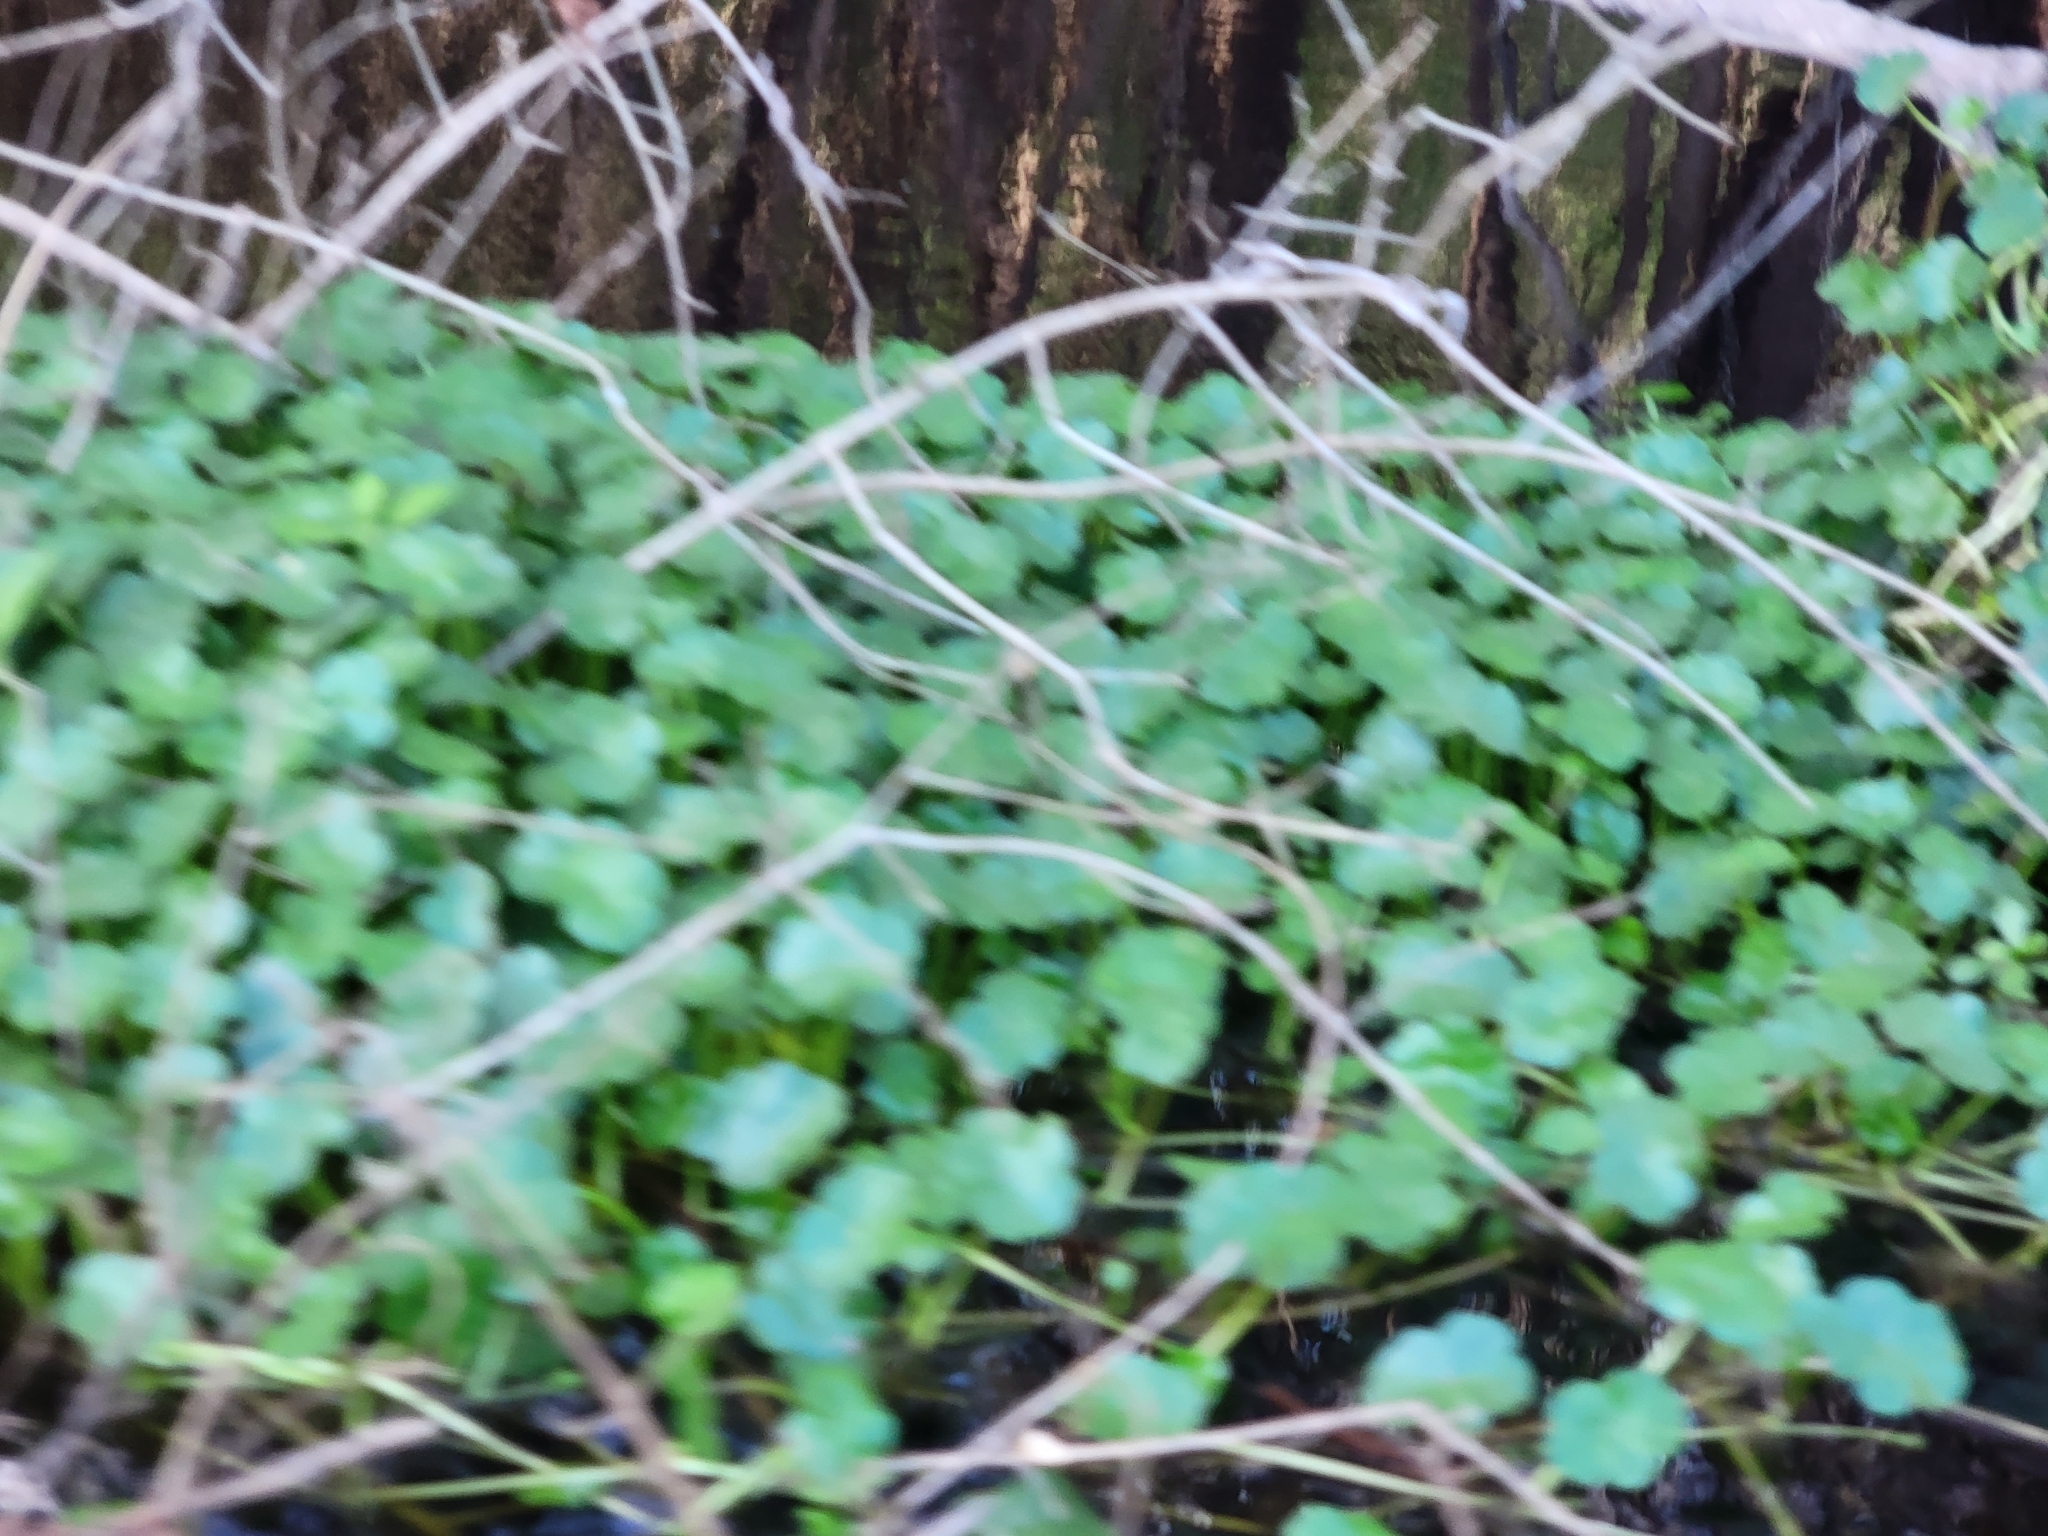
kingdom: Plantae
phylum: Tracheophyta
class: Magnoliopsida
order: Apiales
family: Araliaceae
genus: Hydrocotyle
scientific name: Hydrocotyle ranunculoides
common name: Floating pennywort
